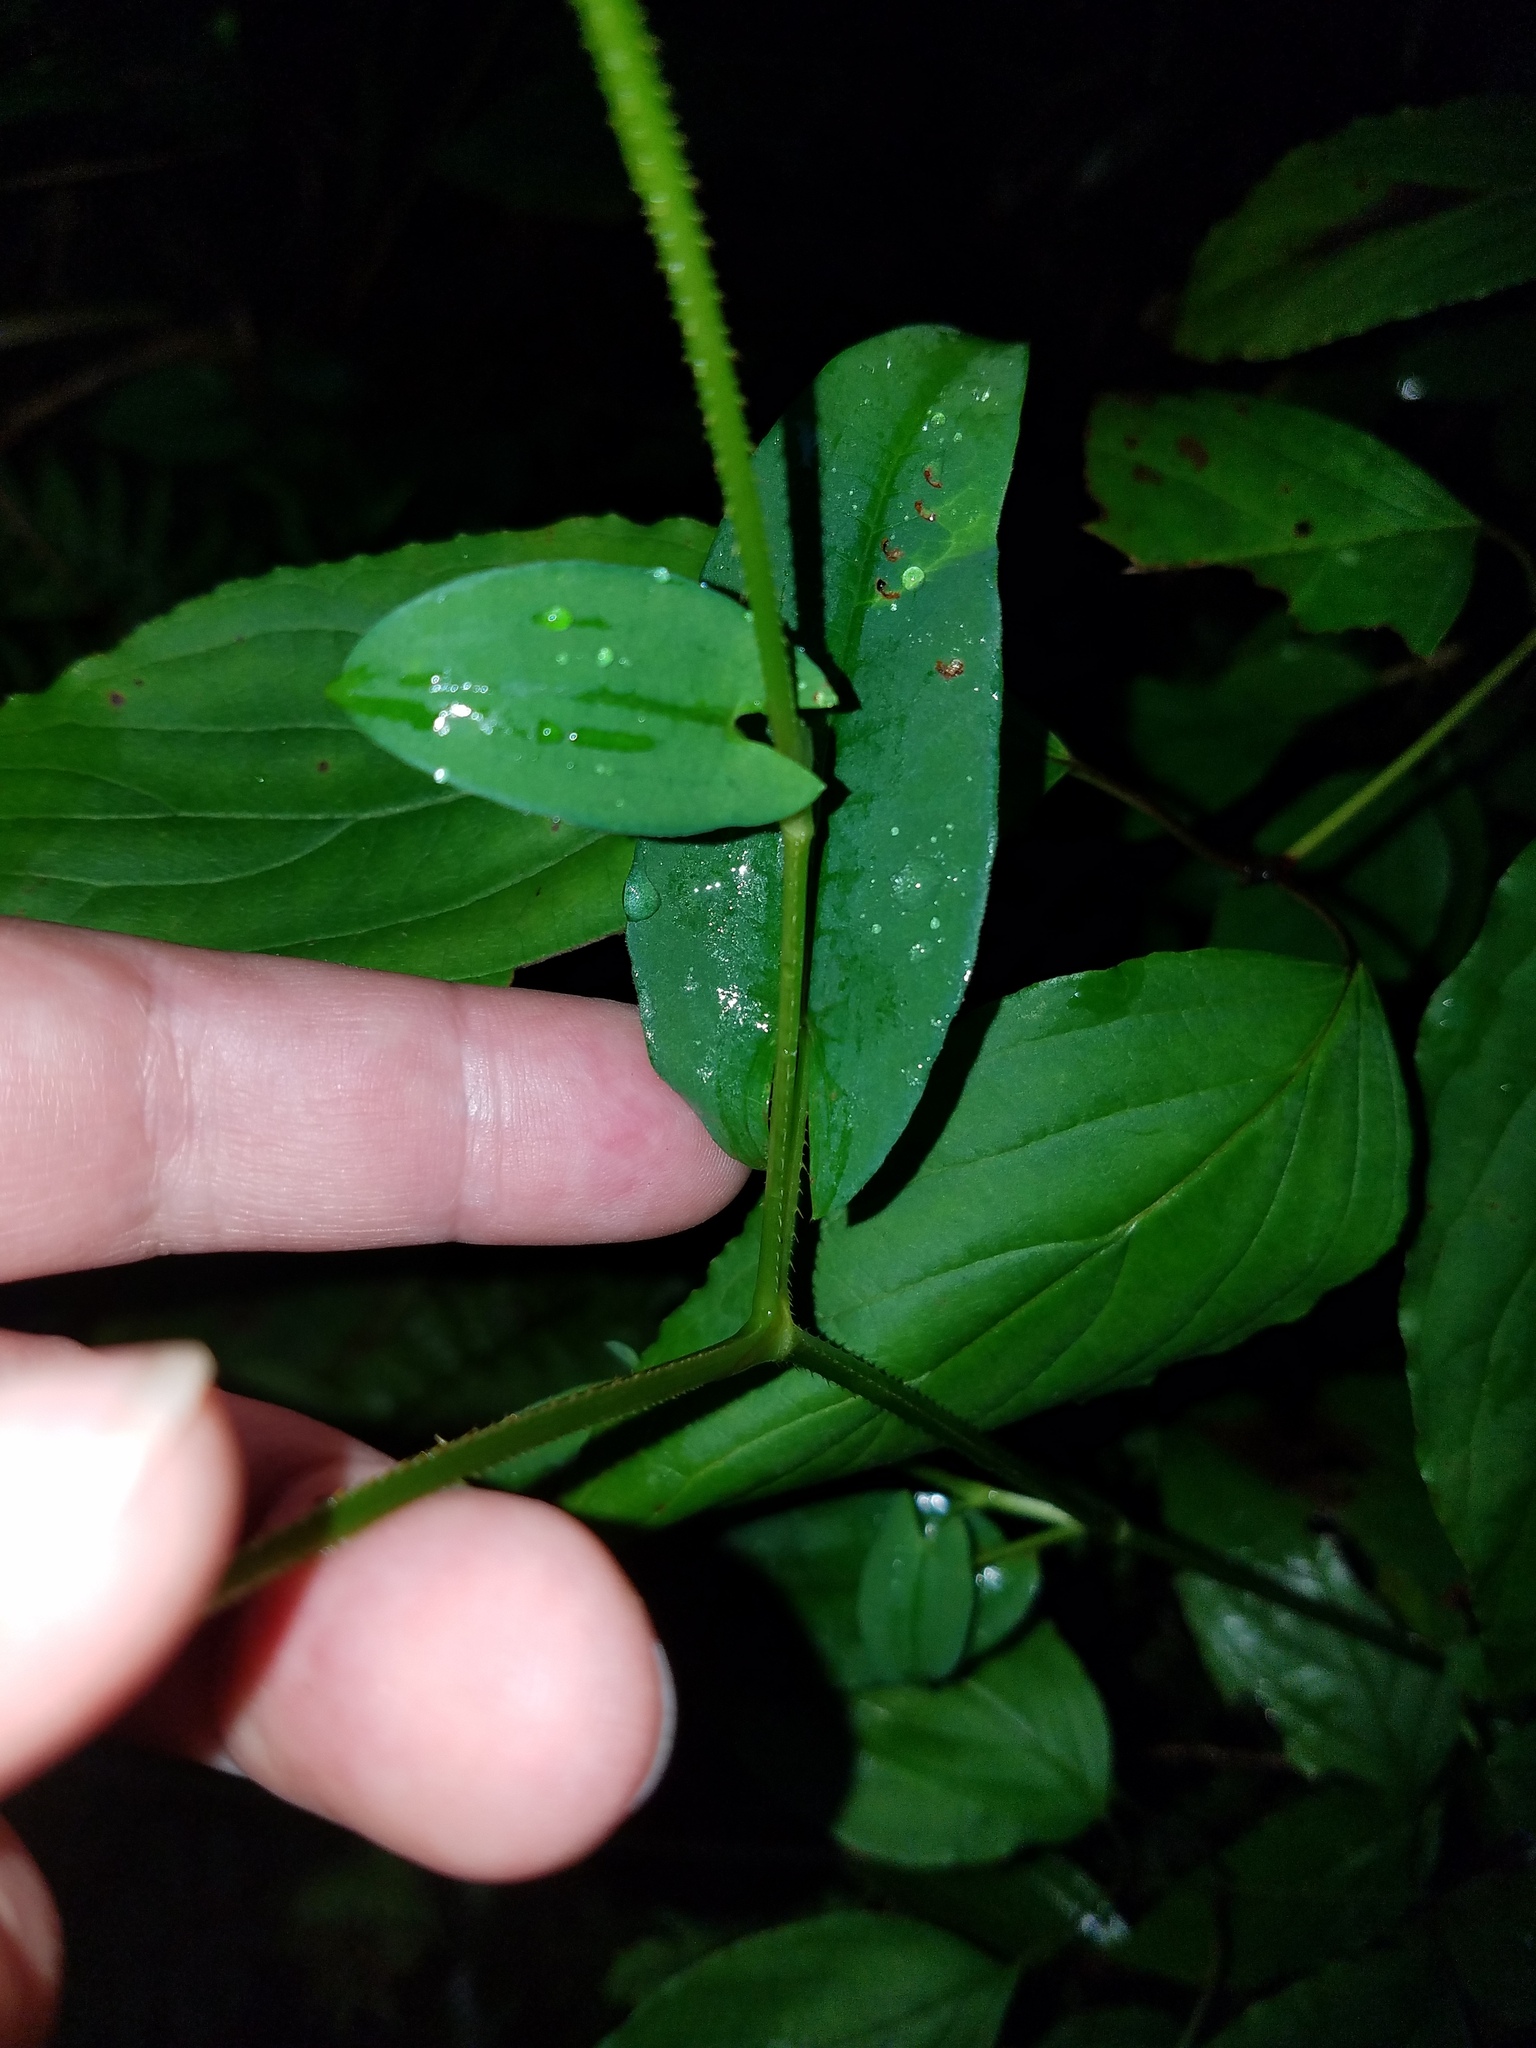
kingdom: Plantae
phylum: Tracheophyta
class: Magnoliopsida
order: Caryophyllales
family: Polygonaceae
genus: Persicaria
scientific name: Persicaria sagittata
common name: American tearthumb
